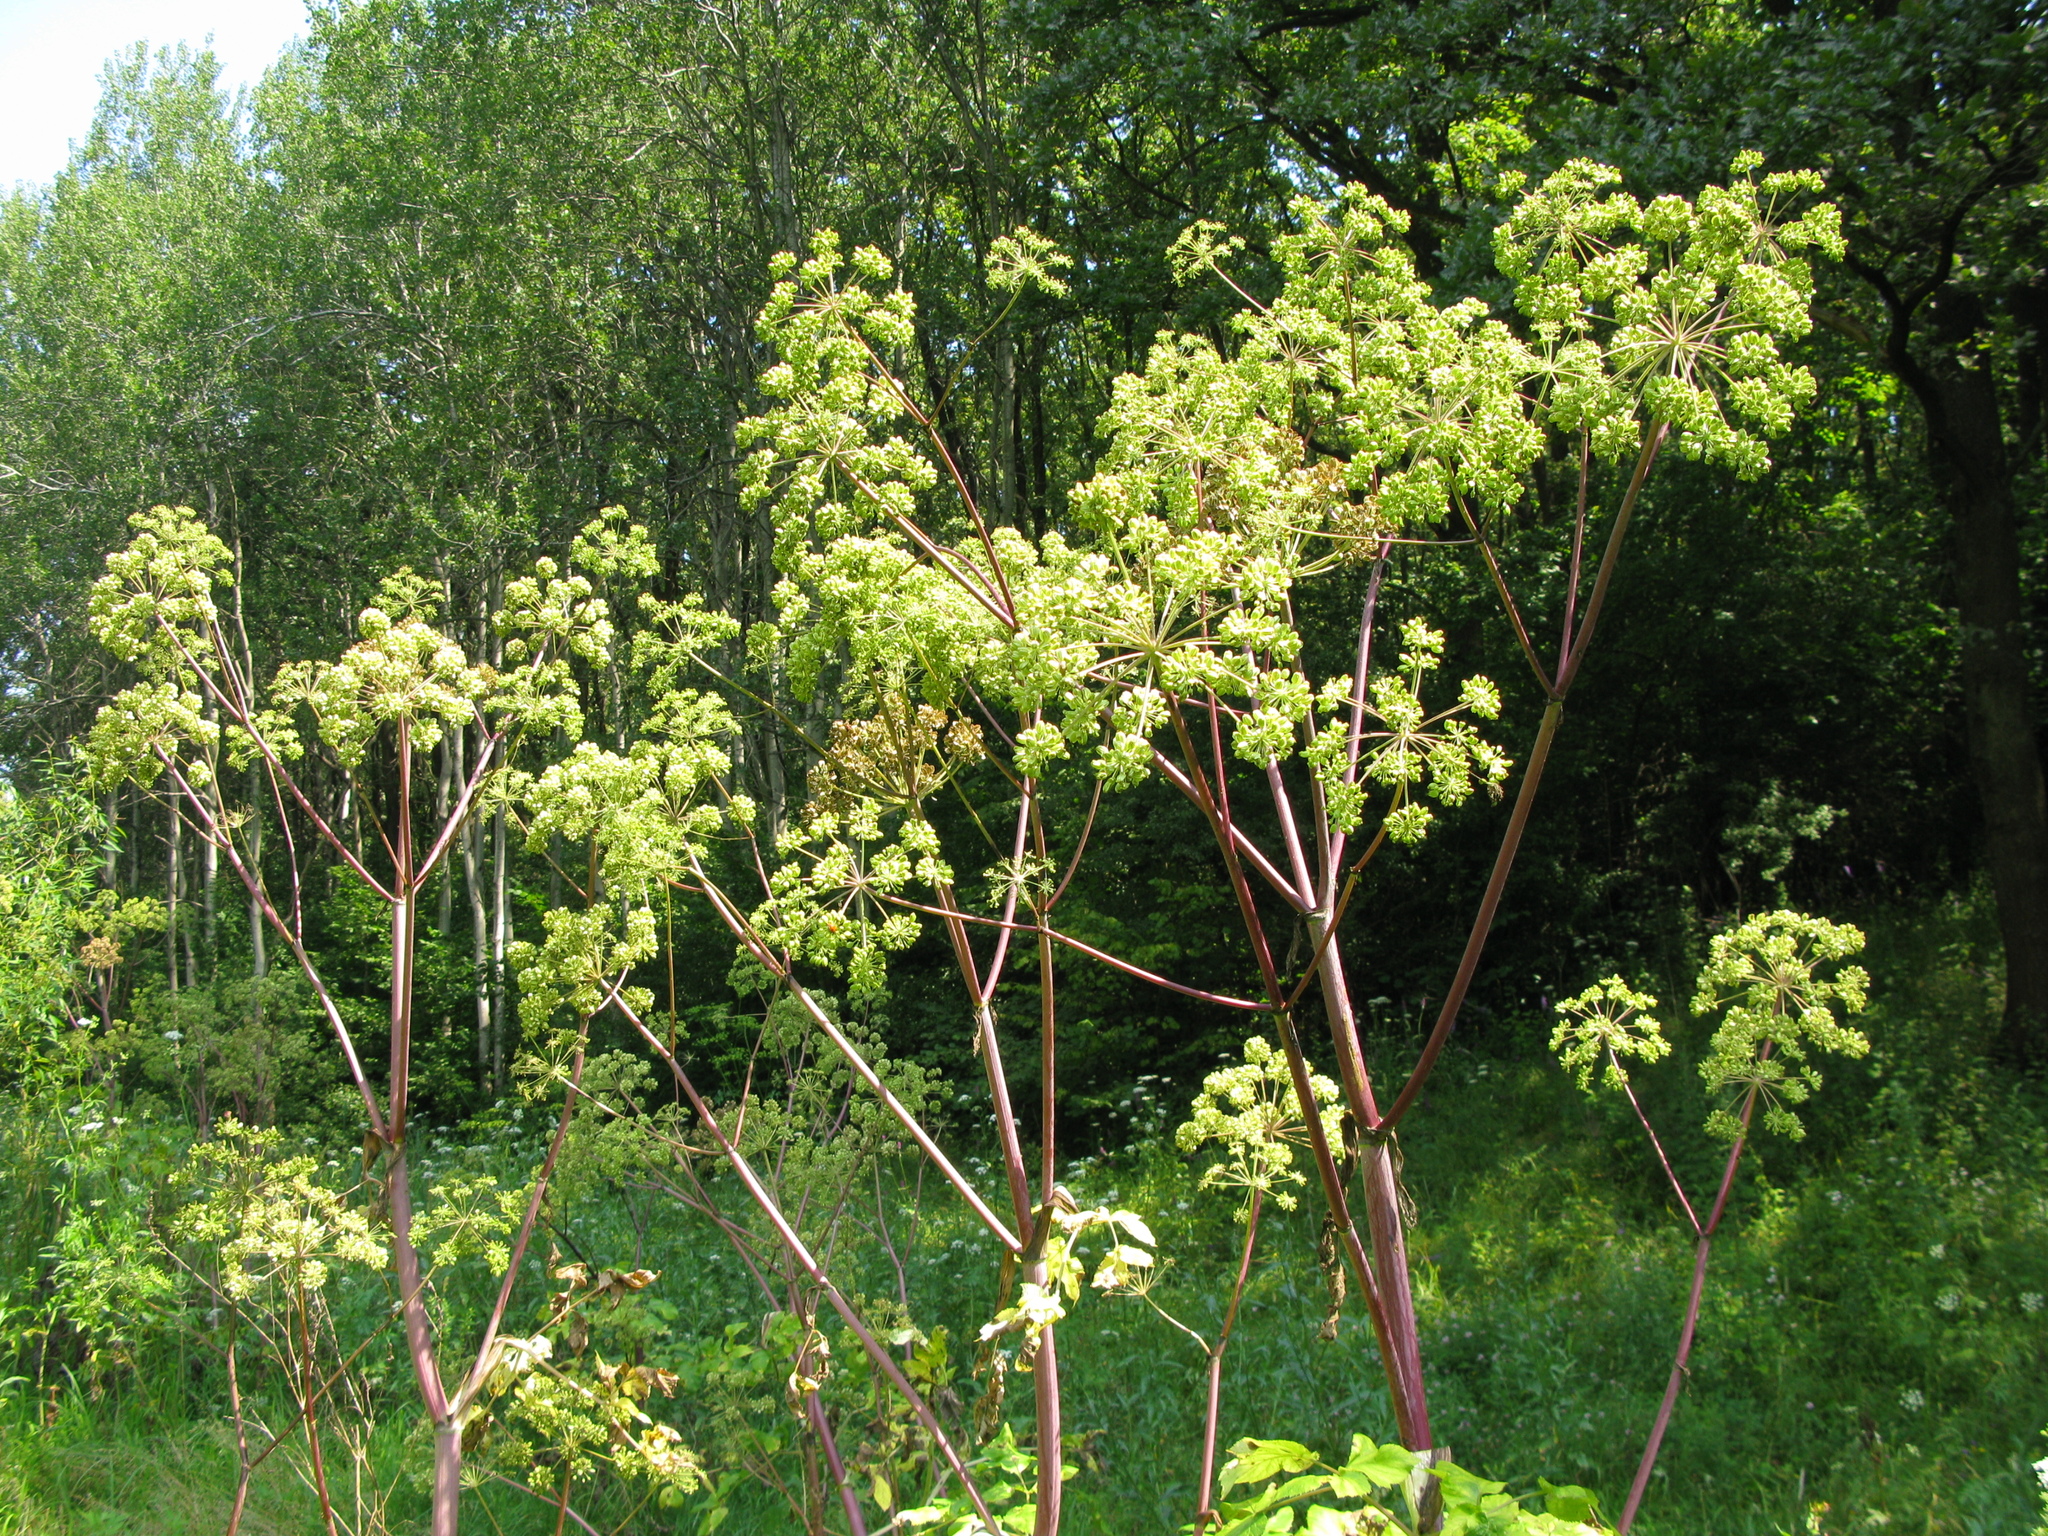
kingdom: Plantae
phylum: Tracheophyta
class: Magnoliopsida
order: Apiales
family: Apiaceae
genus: Angelica
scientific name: Angelica archangelica
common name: Garden angelica
